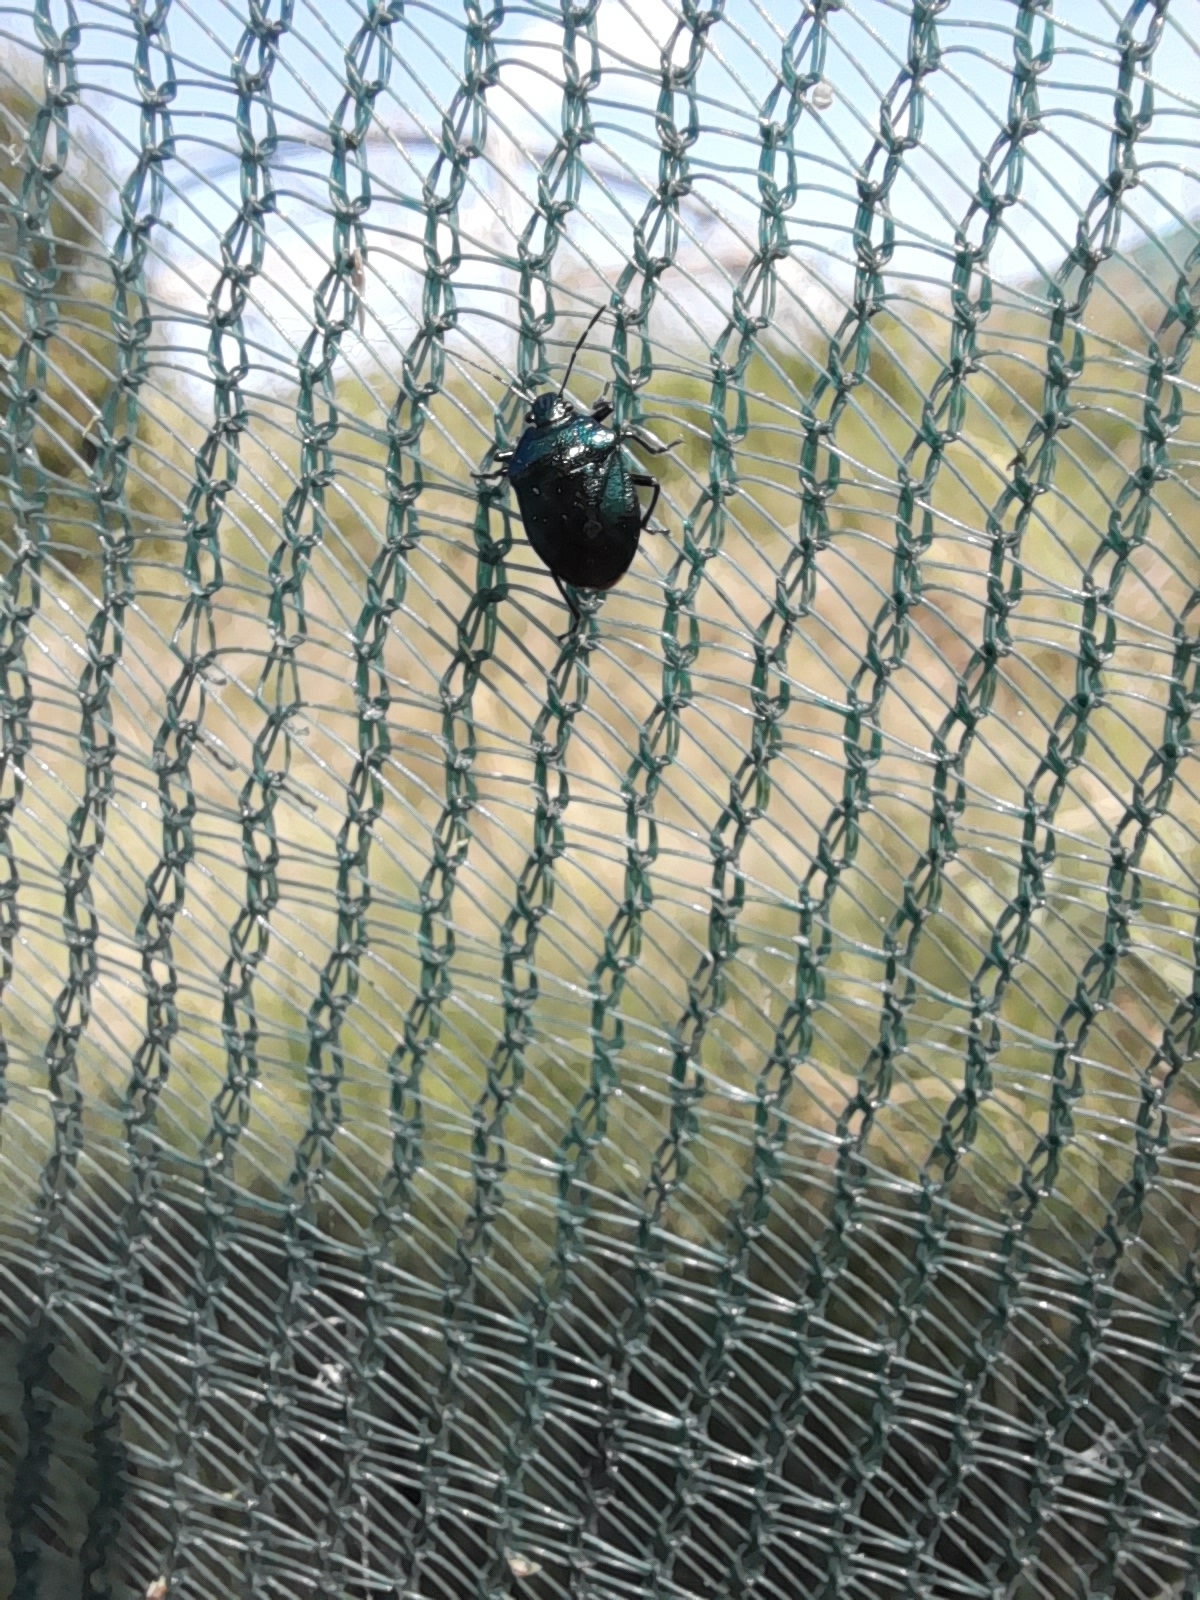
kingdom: Animalia
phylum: Arthropoda
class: Insecta
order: Hemiptera
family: Pentatomidae
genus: Zicrona
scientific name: Zicrona caerulea
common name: Blue shieldbug
